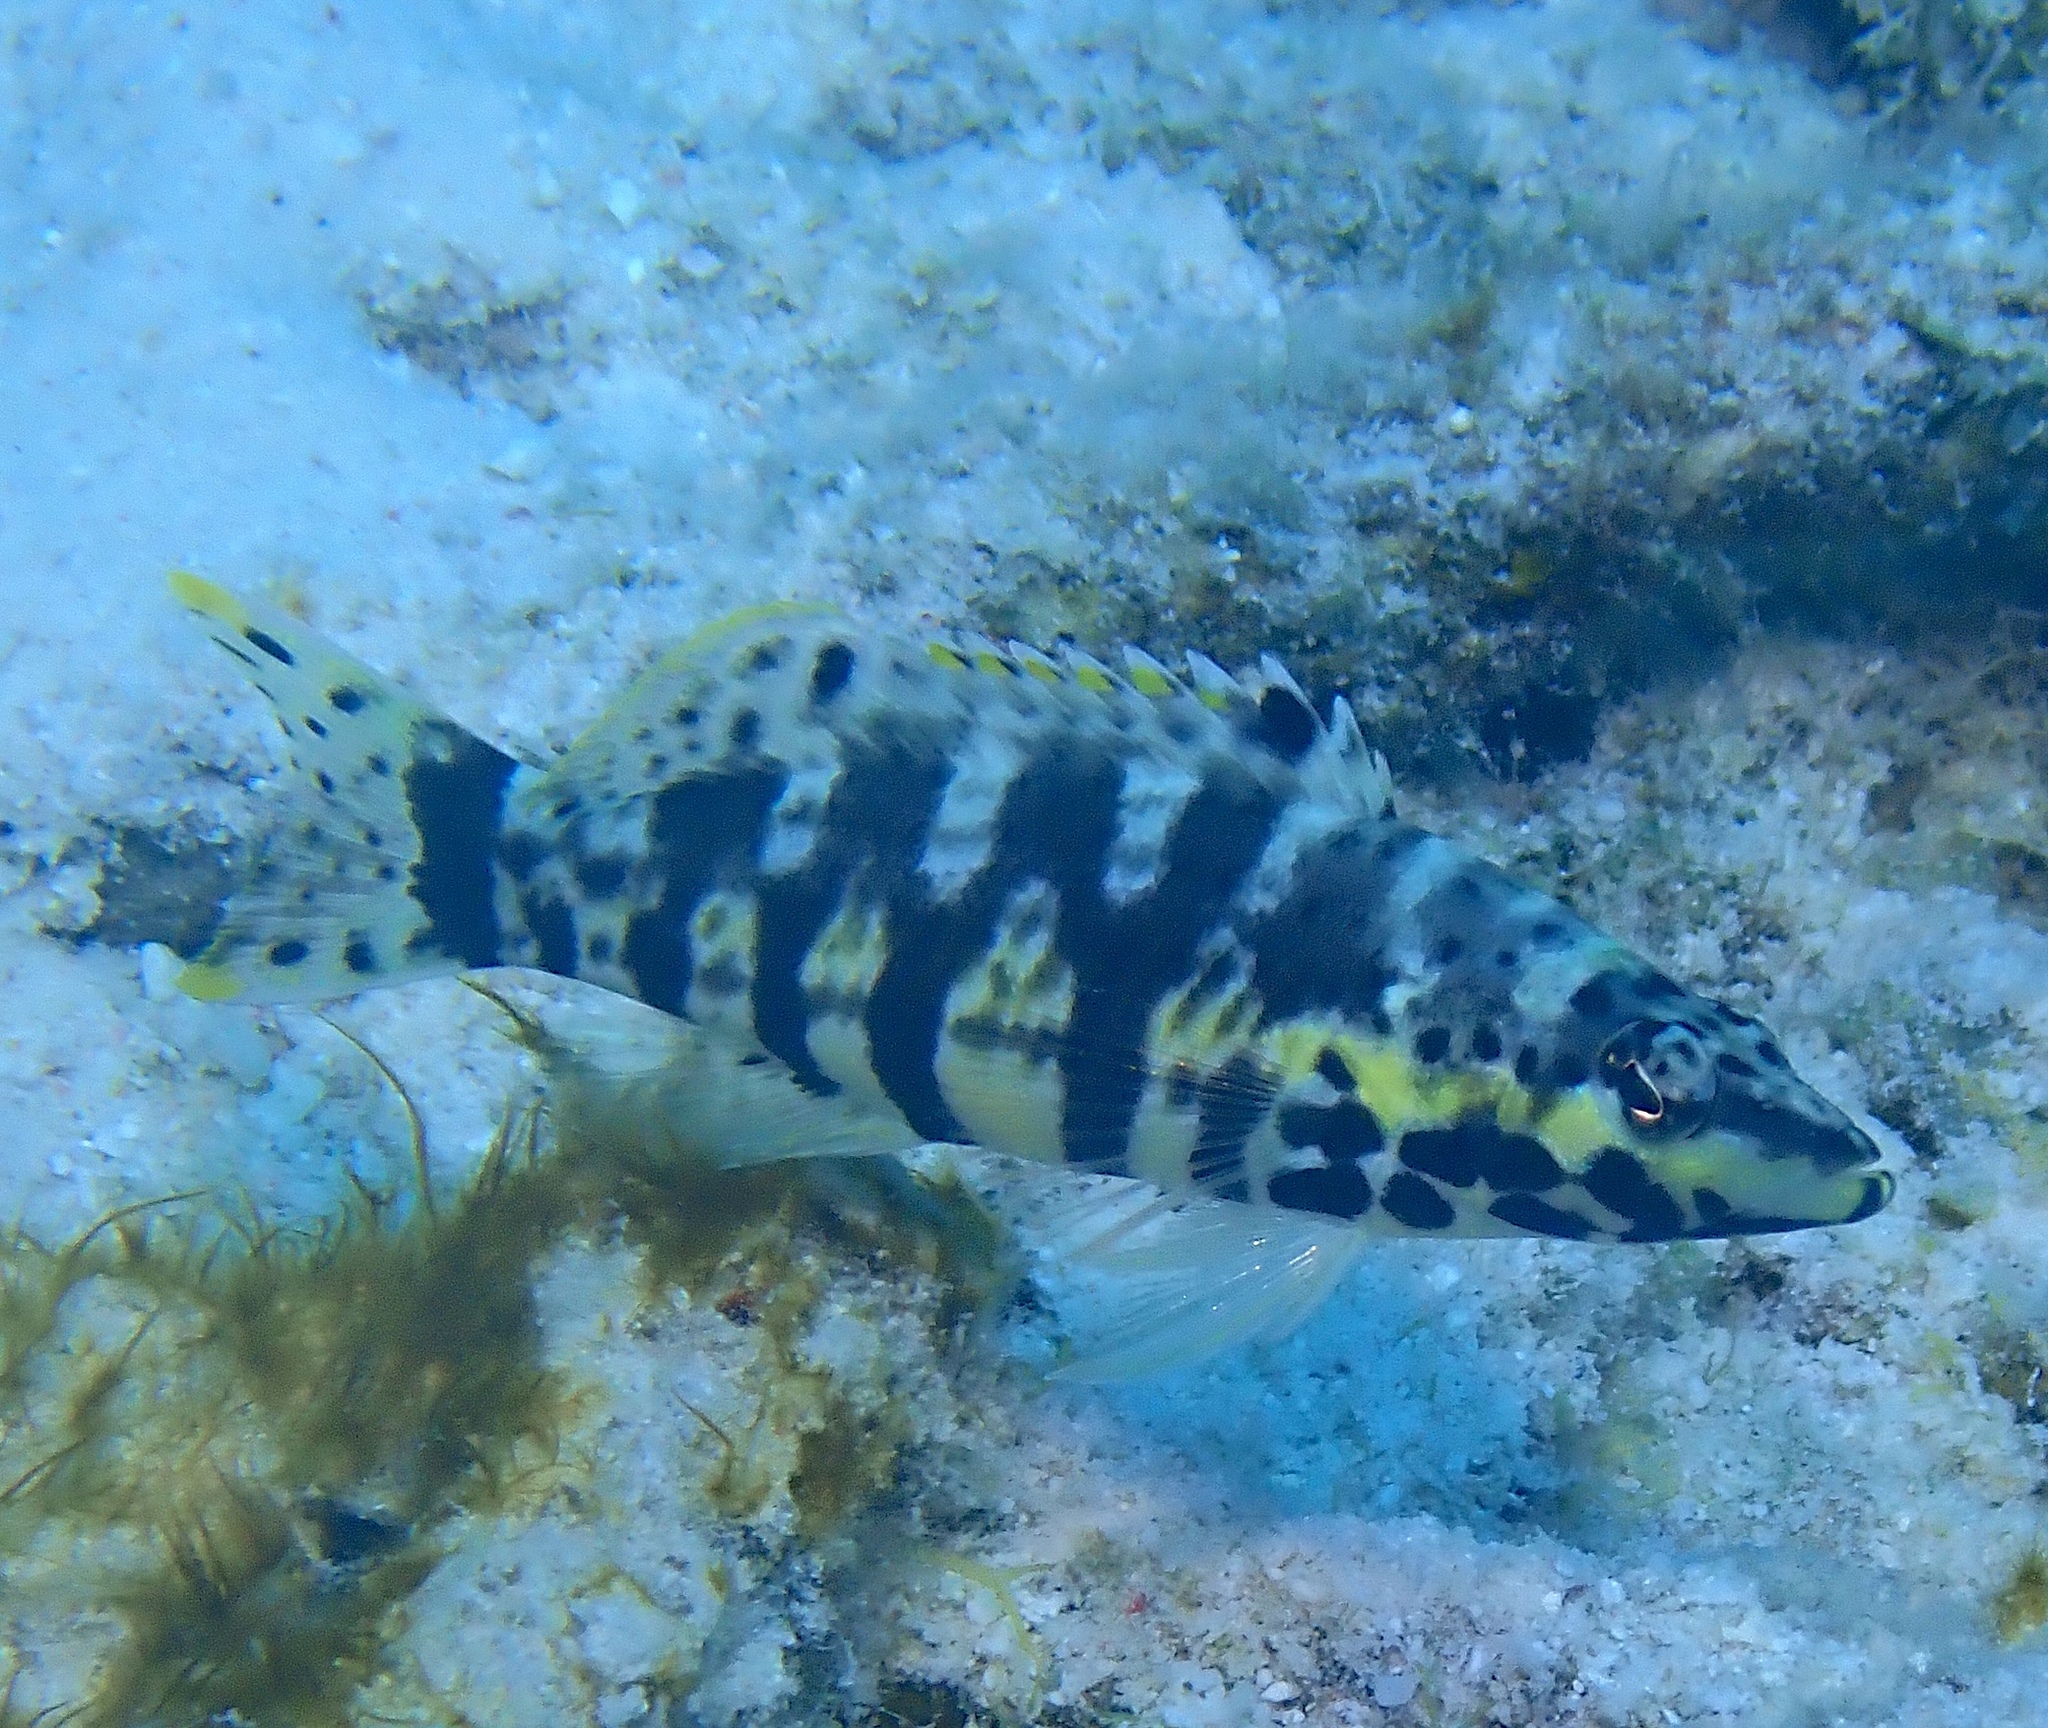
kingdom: Animalia
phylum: Chordata
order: Perciformes
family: Serranidae
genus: Serranus
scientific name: Serranus tigrinus
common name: Harlequin bass
